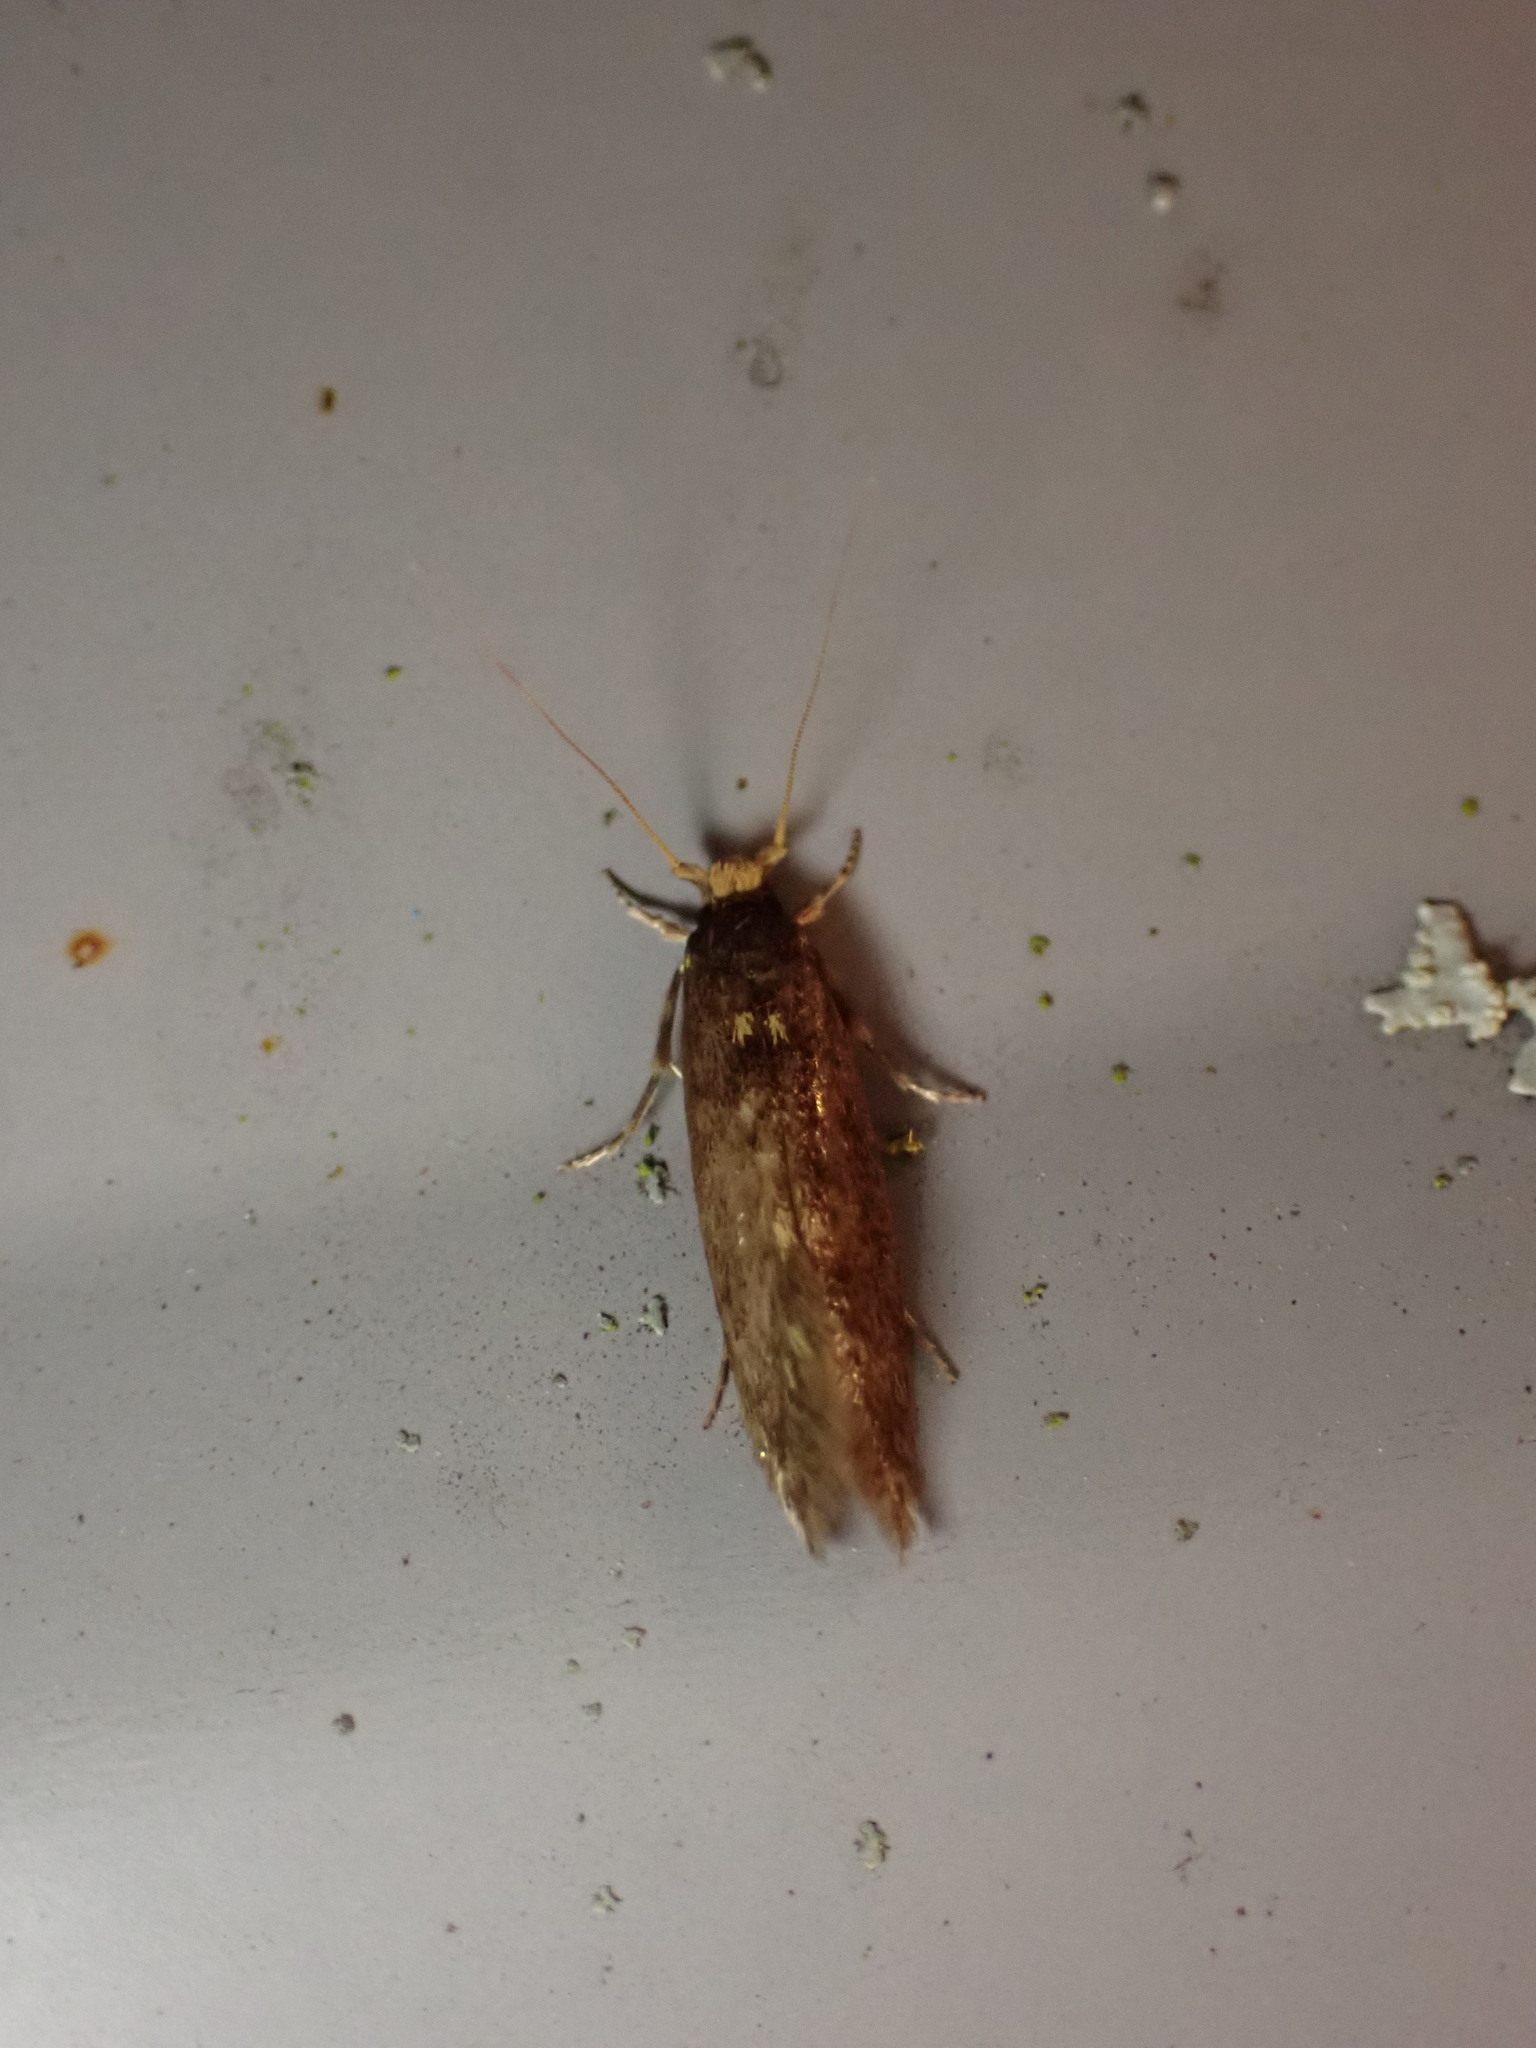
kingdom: Animalia
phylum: Arthropoda
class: Insecta
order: Lepidoptera
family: Tineidae
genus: Opogona
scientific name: Opogona omoscopa
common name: Moth
